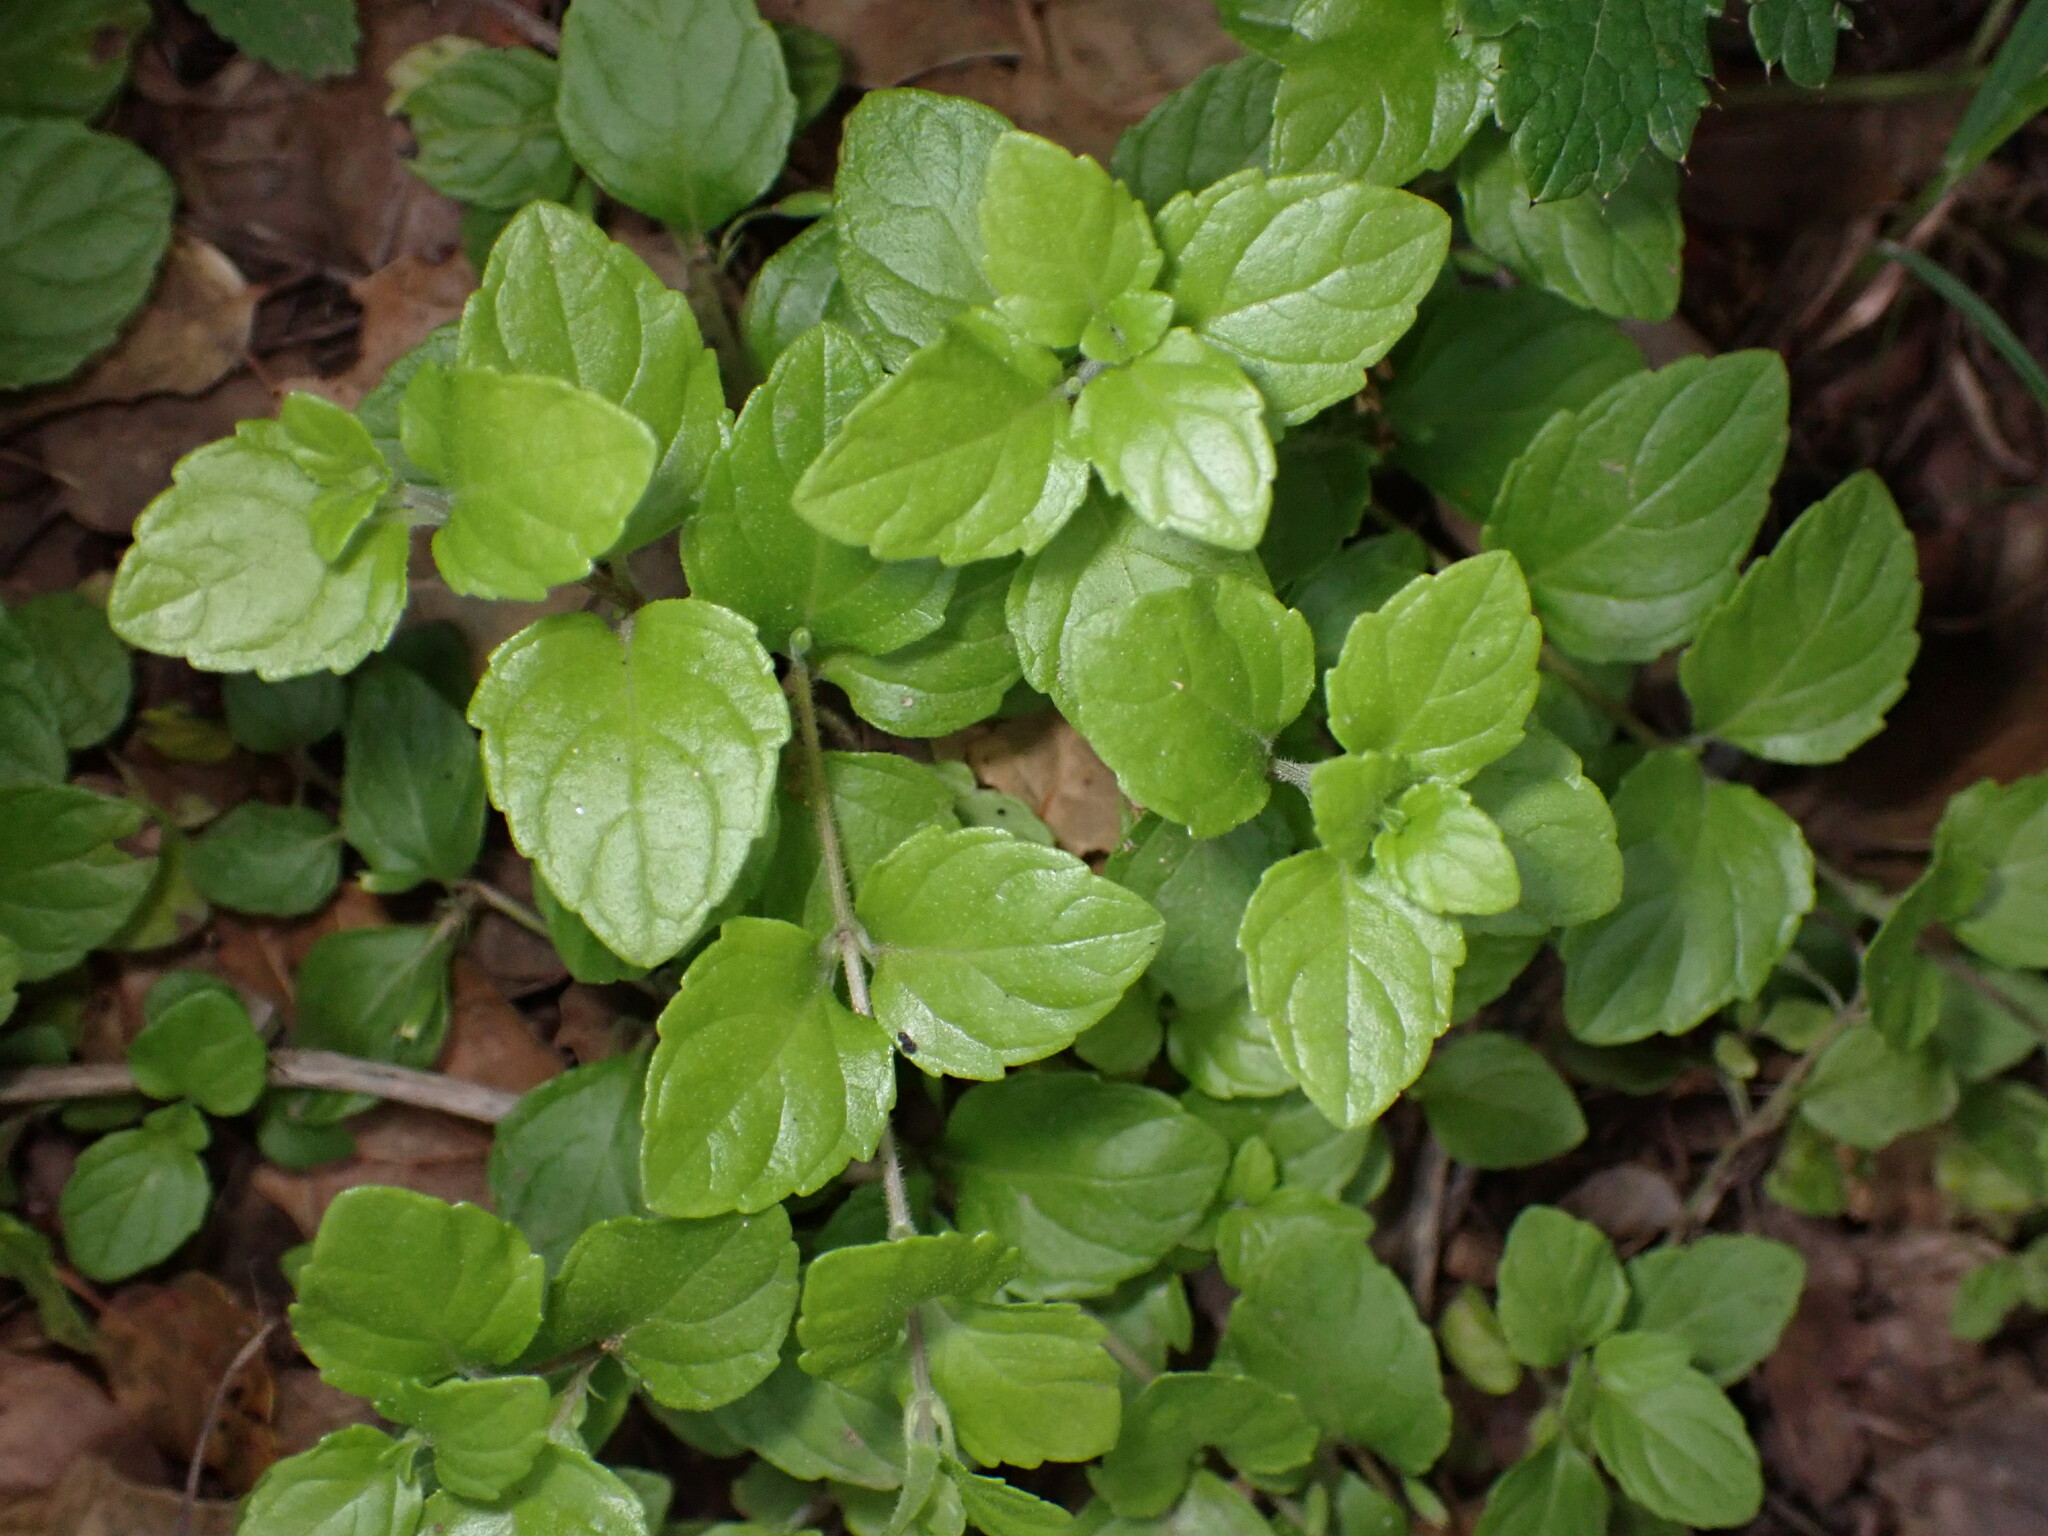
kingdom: Plantae
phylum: Tracheophyta
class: Magnoliopsida
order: Lamiales
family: Lamiaceae
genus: Micromeria
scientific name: Micromeria douglasii
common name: Yerba buena
